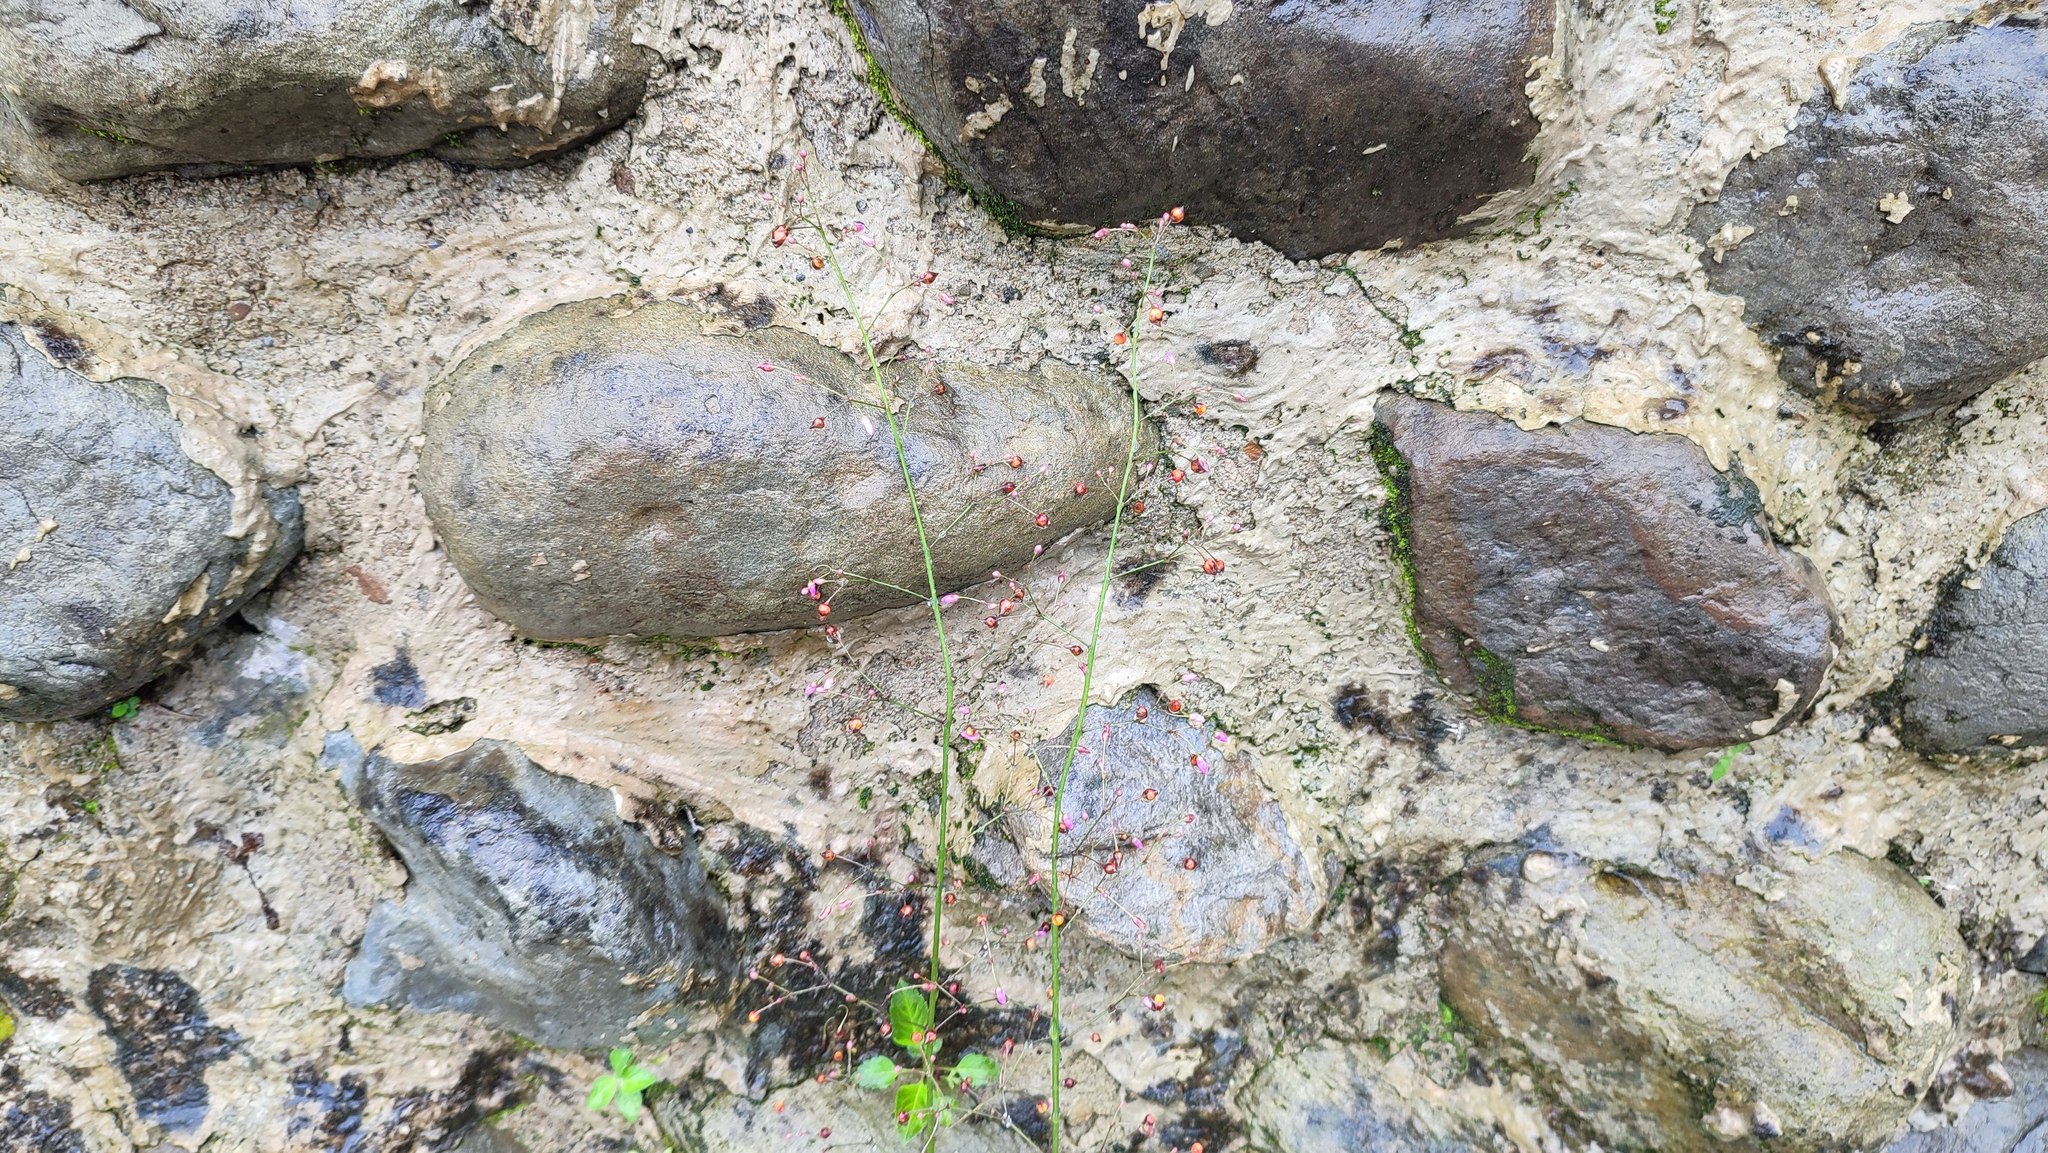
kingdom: Plantae
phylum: Tracheophyta
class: Magnoliopsida
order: Caryophyllales
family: Talinaceae
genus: Talinum
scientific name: Talinum paniculatum
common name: Jewels of opar
